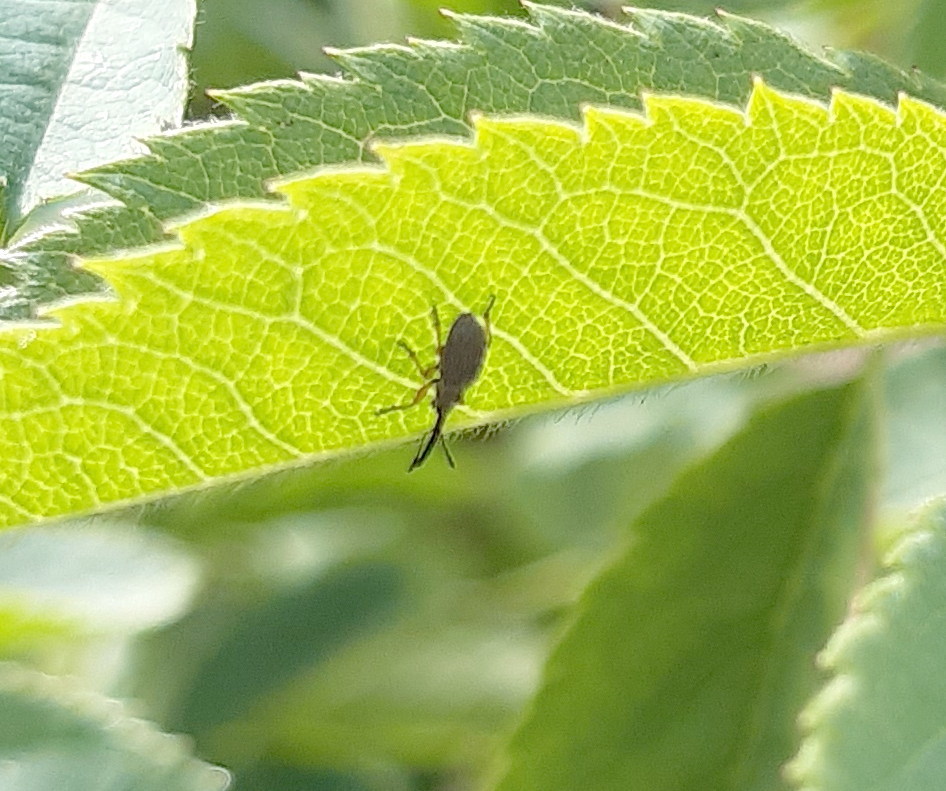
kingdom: Animalia
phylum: Arthropoda
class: Insecta
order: Coleoptera
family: Brentidae
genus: Rhopalapion
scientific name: Rhopalapion longirostre
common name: Hollyhock weevil
